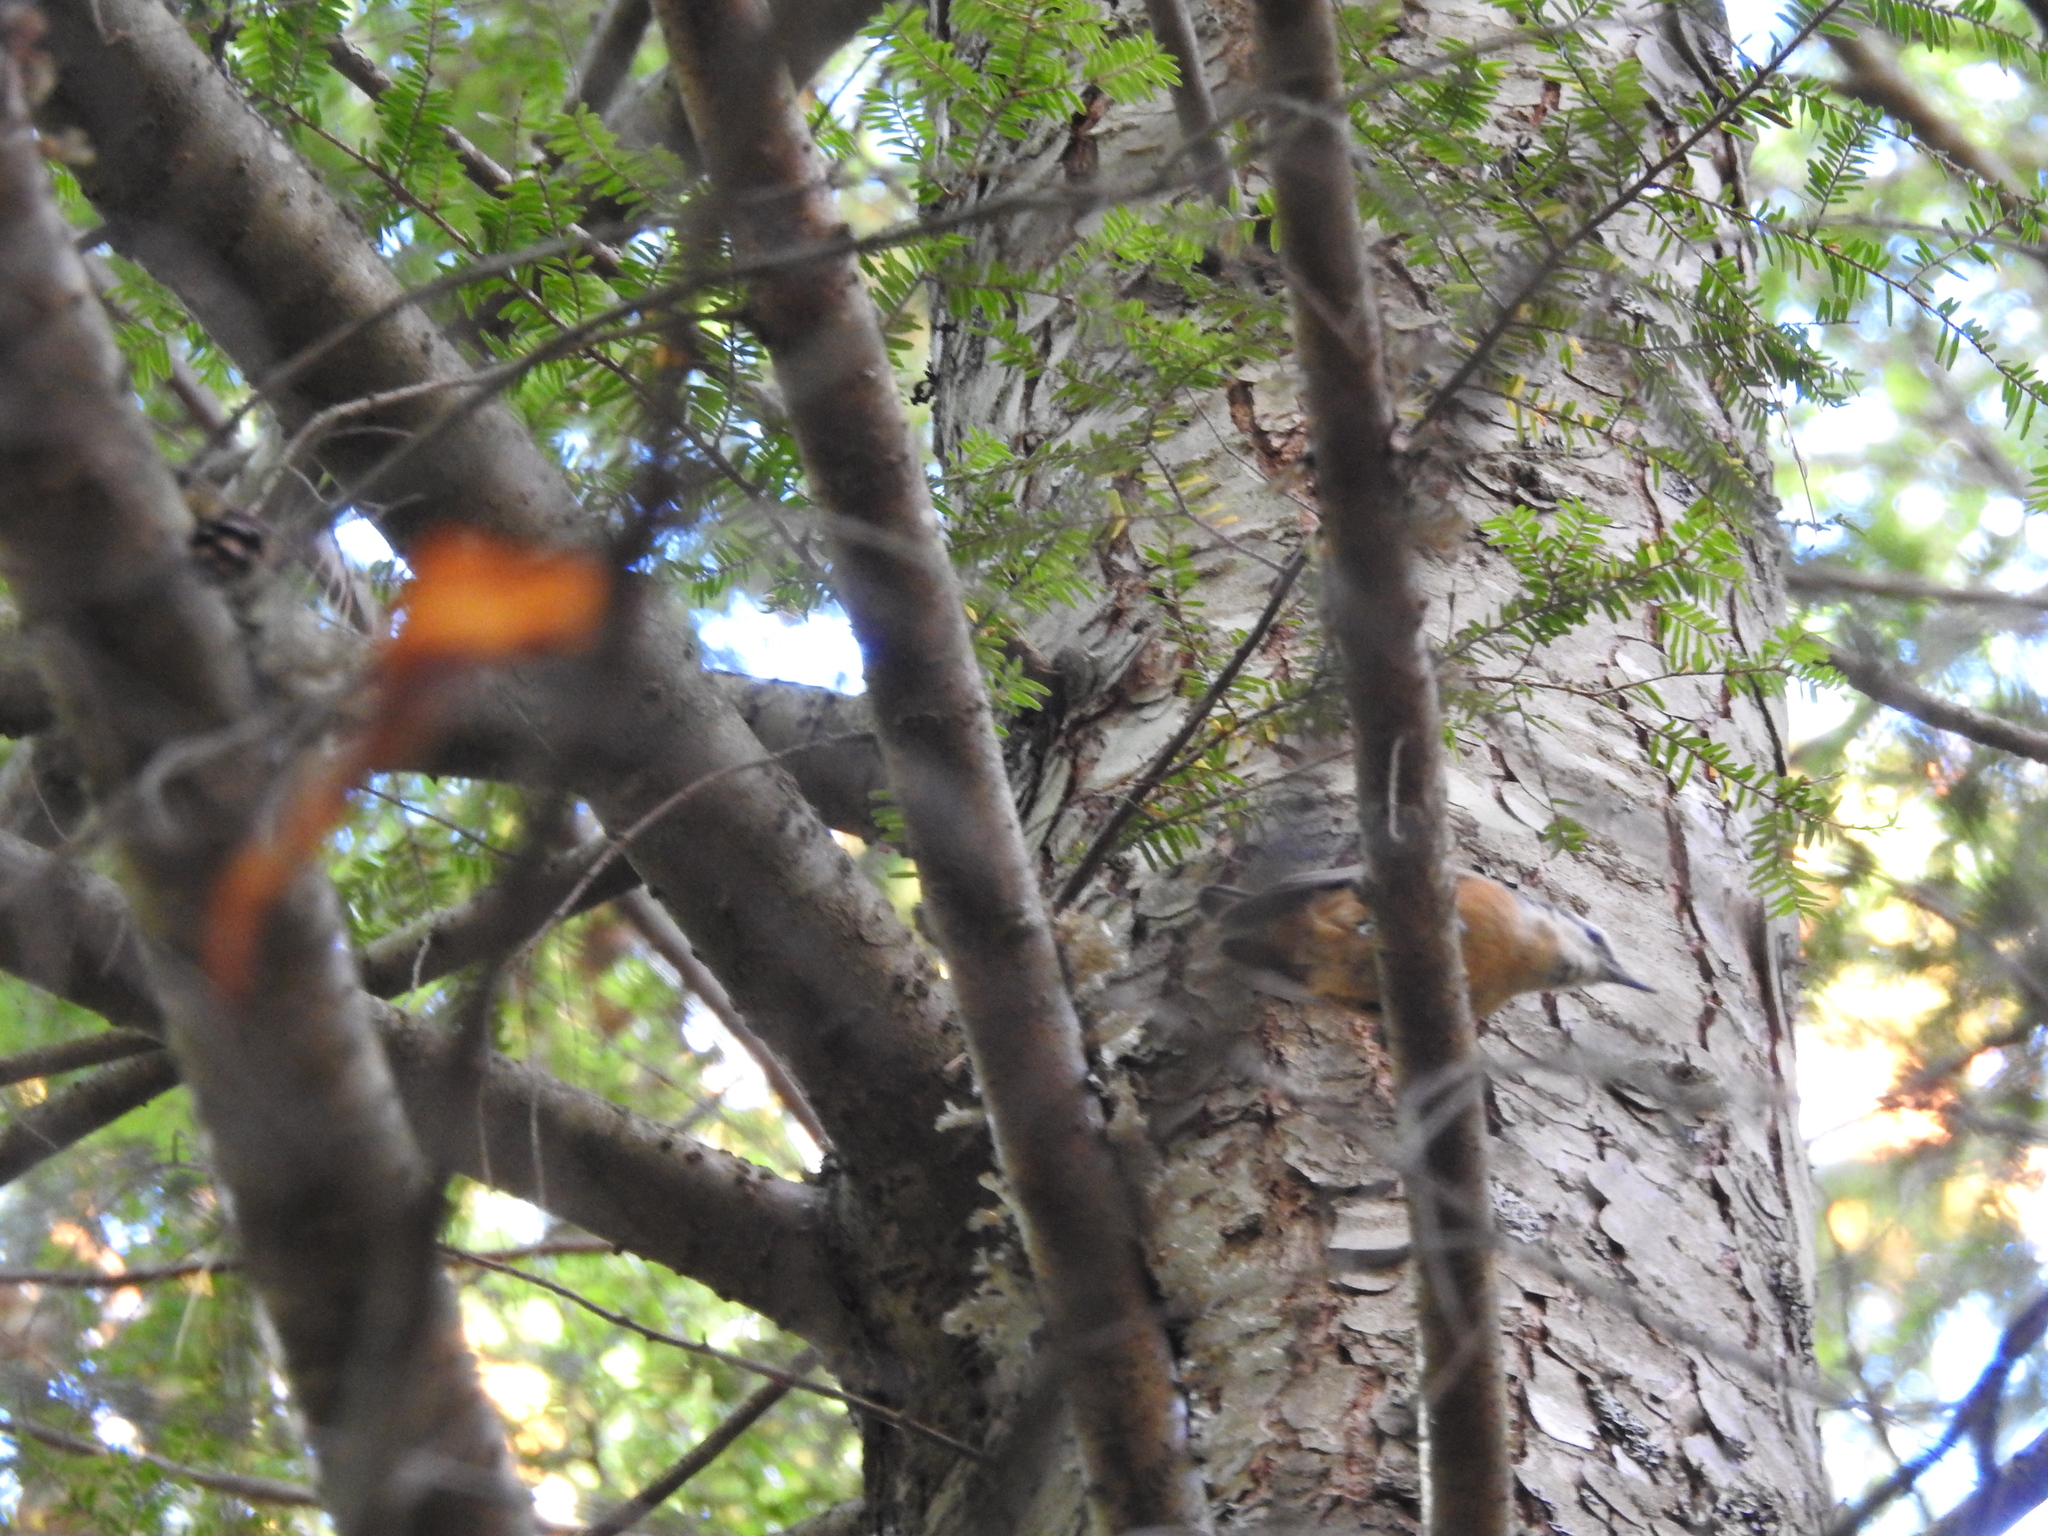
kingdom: Animalia
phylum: Chordata
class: Aves
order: Passeriformes
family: Sittidae
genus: Sitta
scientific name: Sitta canadensis
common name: Red-breasted nuthatch
